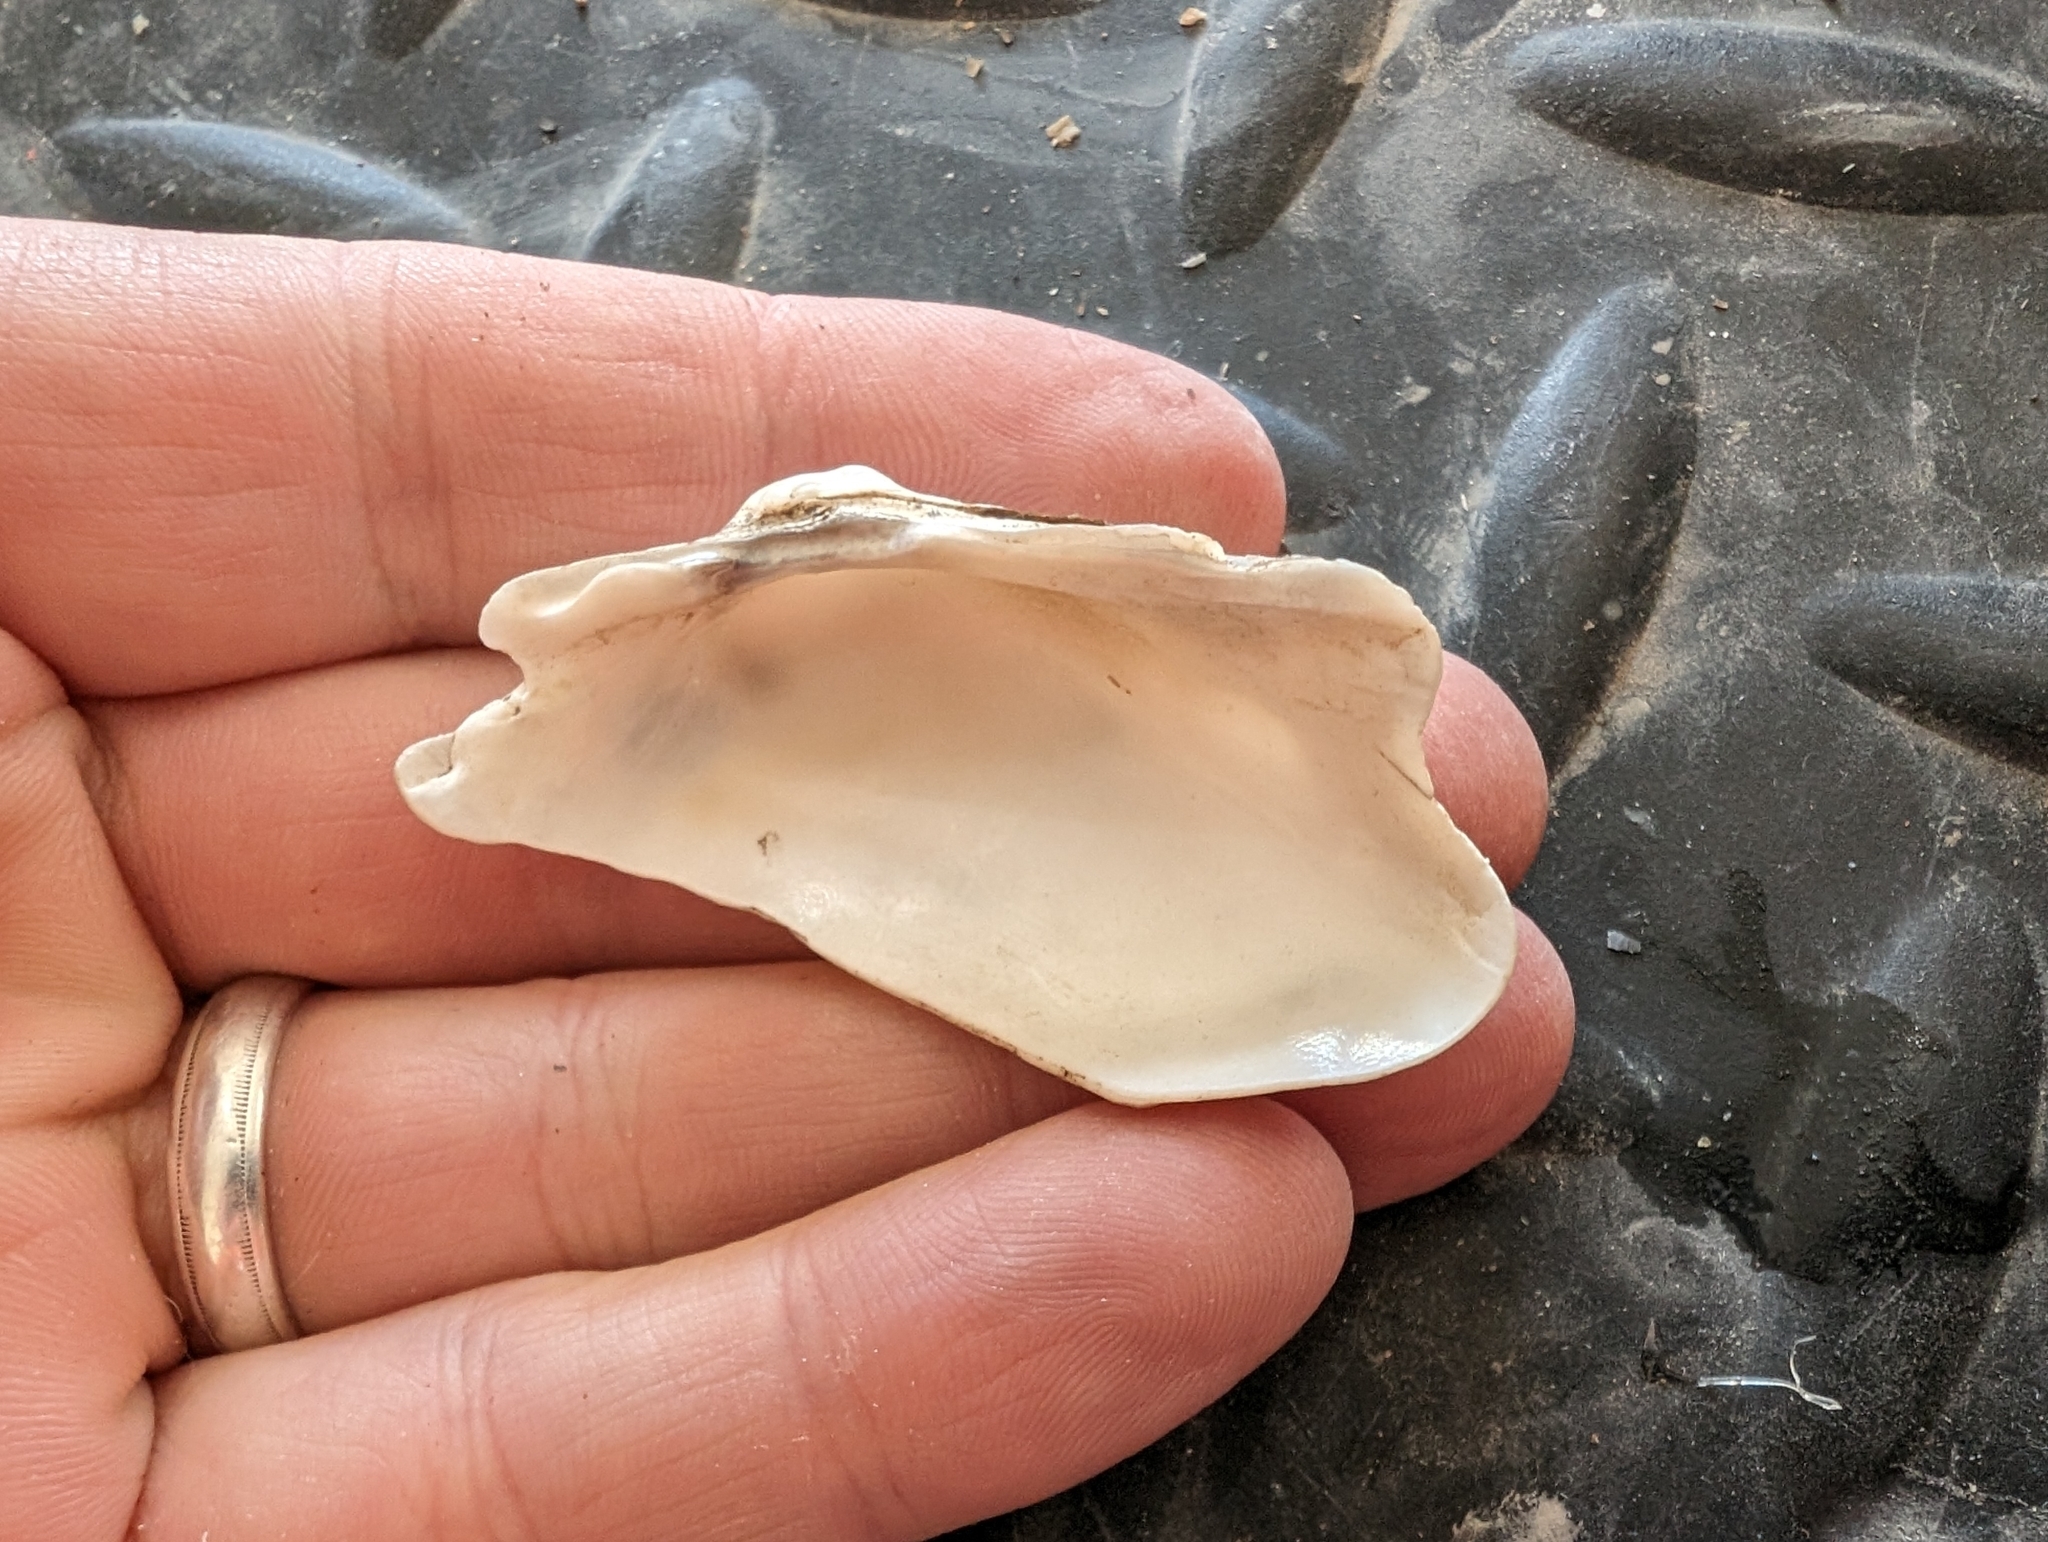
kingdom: Animalia
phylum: Mollusca
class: Bivalvia
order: Unionida
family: Unionidae
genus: Alasmidonta
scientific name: Alasmidonta marginata
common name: Elktoe
